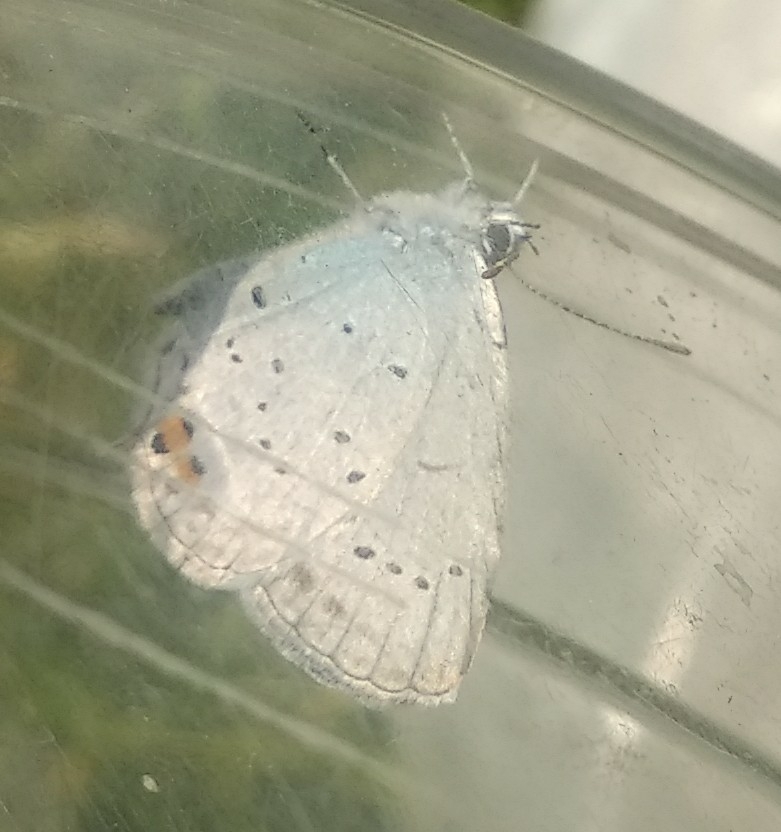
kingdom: Animalia
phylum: Arthropoda
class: Insecta
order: Lepidoptera
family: Lycaenidae
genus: Elkalyce
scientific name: Elkalyce argiades
